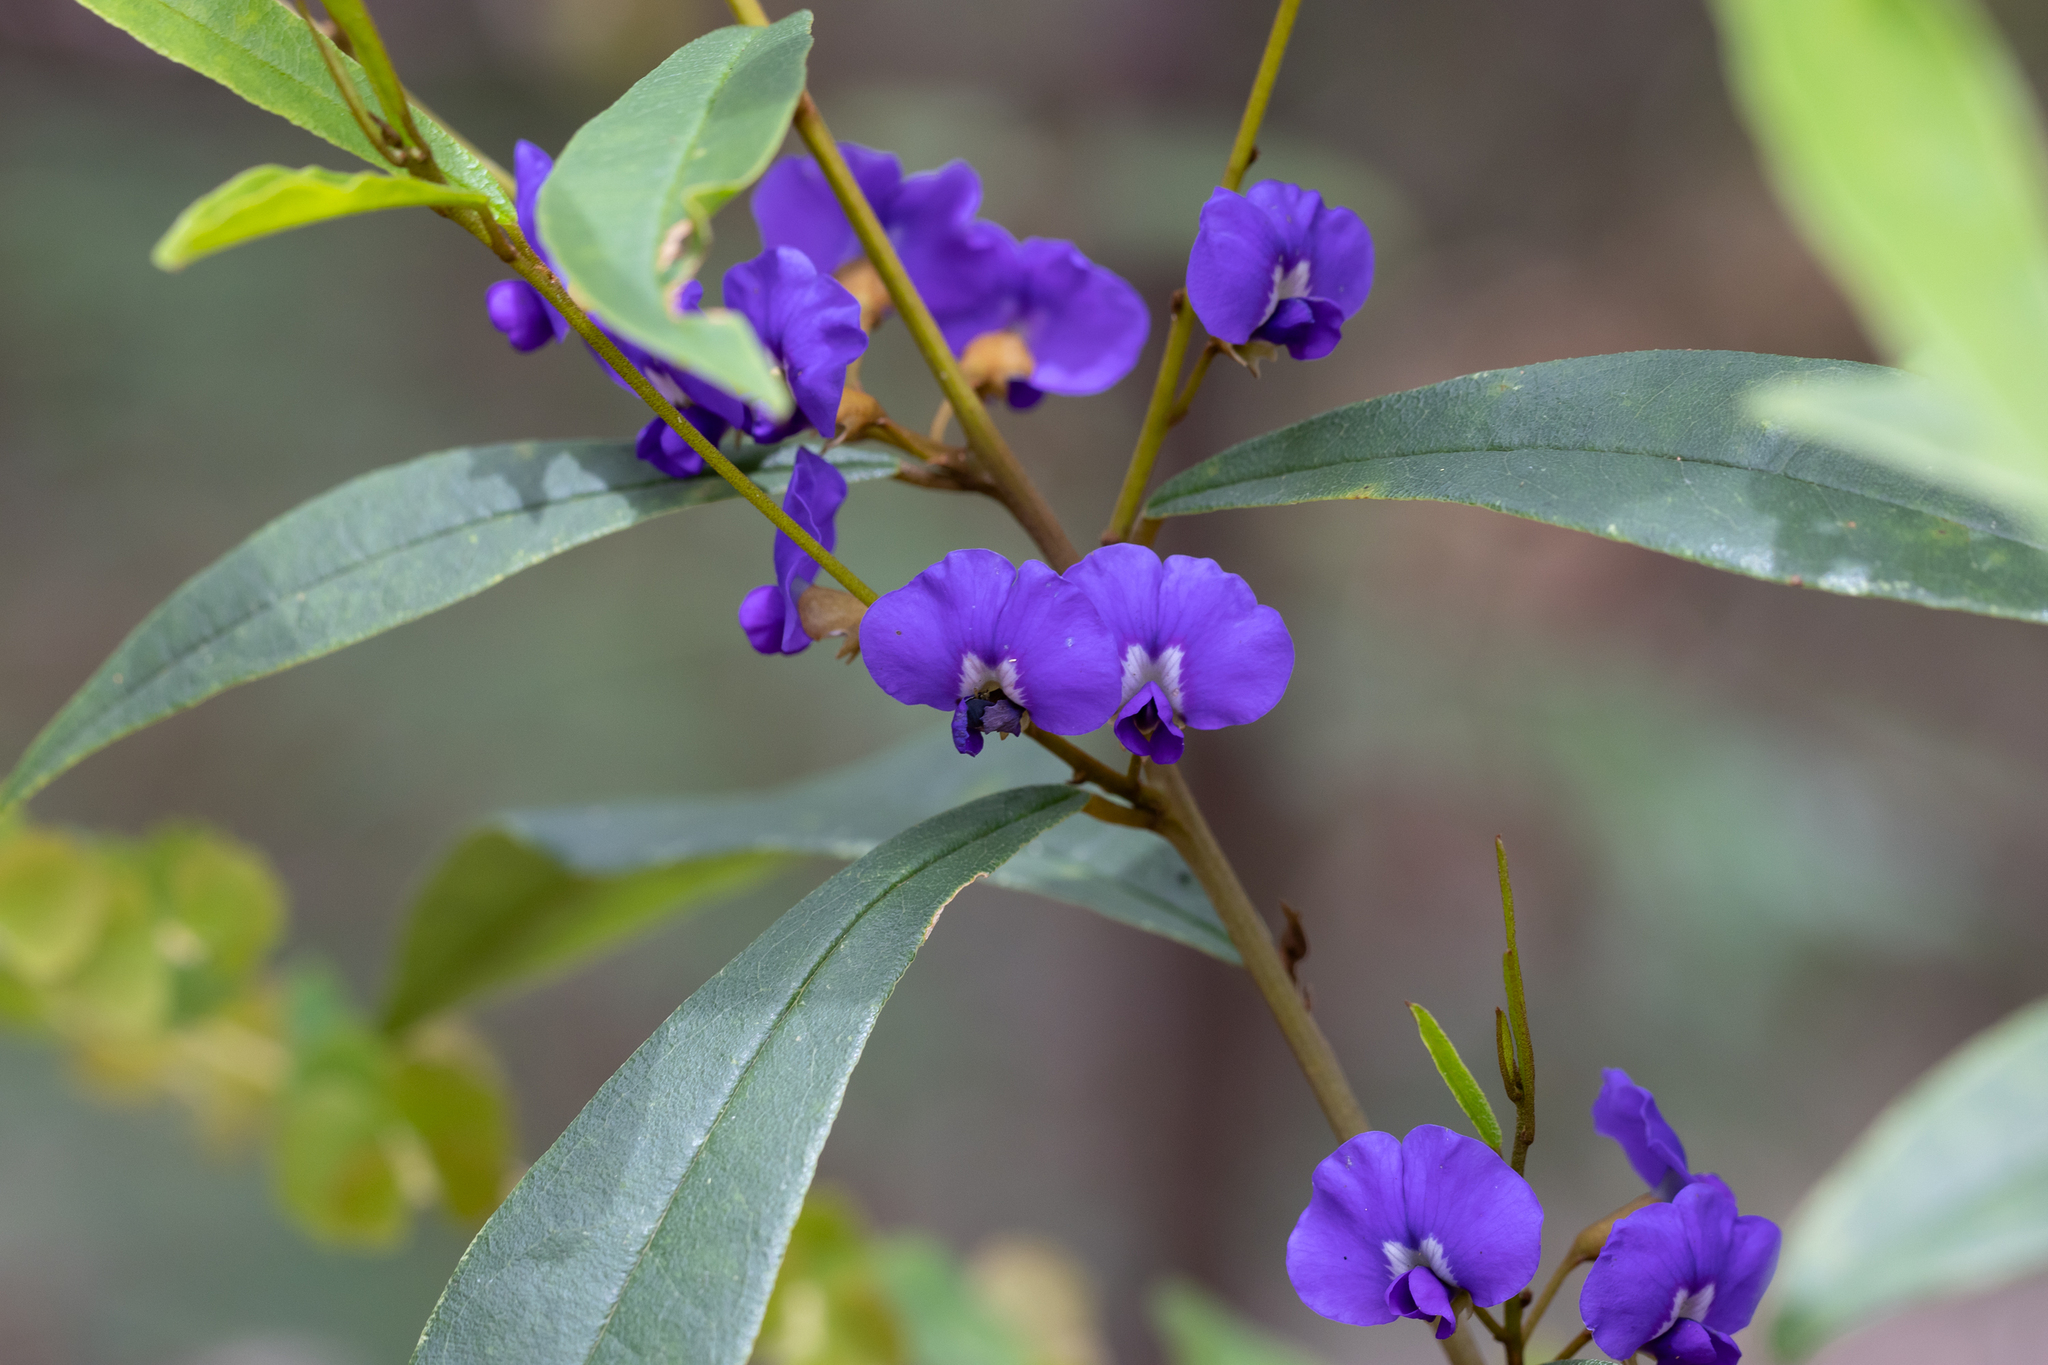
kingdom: Plantae
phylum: Tracheophyta
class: Magnoliopsida
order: Fabales
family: Fabaceae
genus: Hovea
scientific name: Hovea elliptica
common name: Tree hovea
